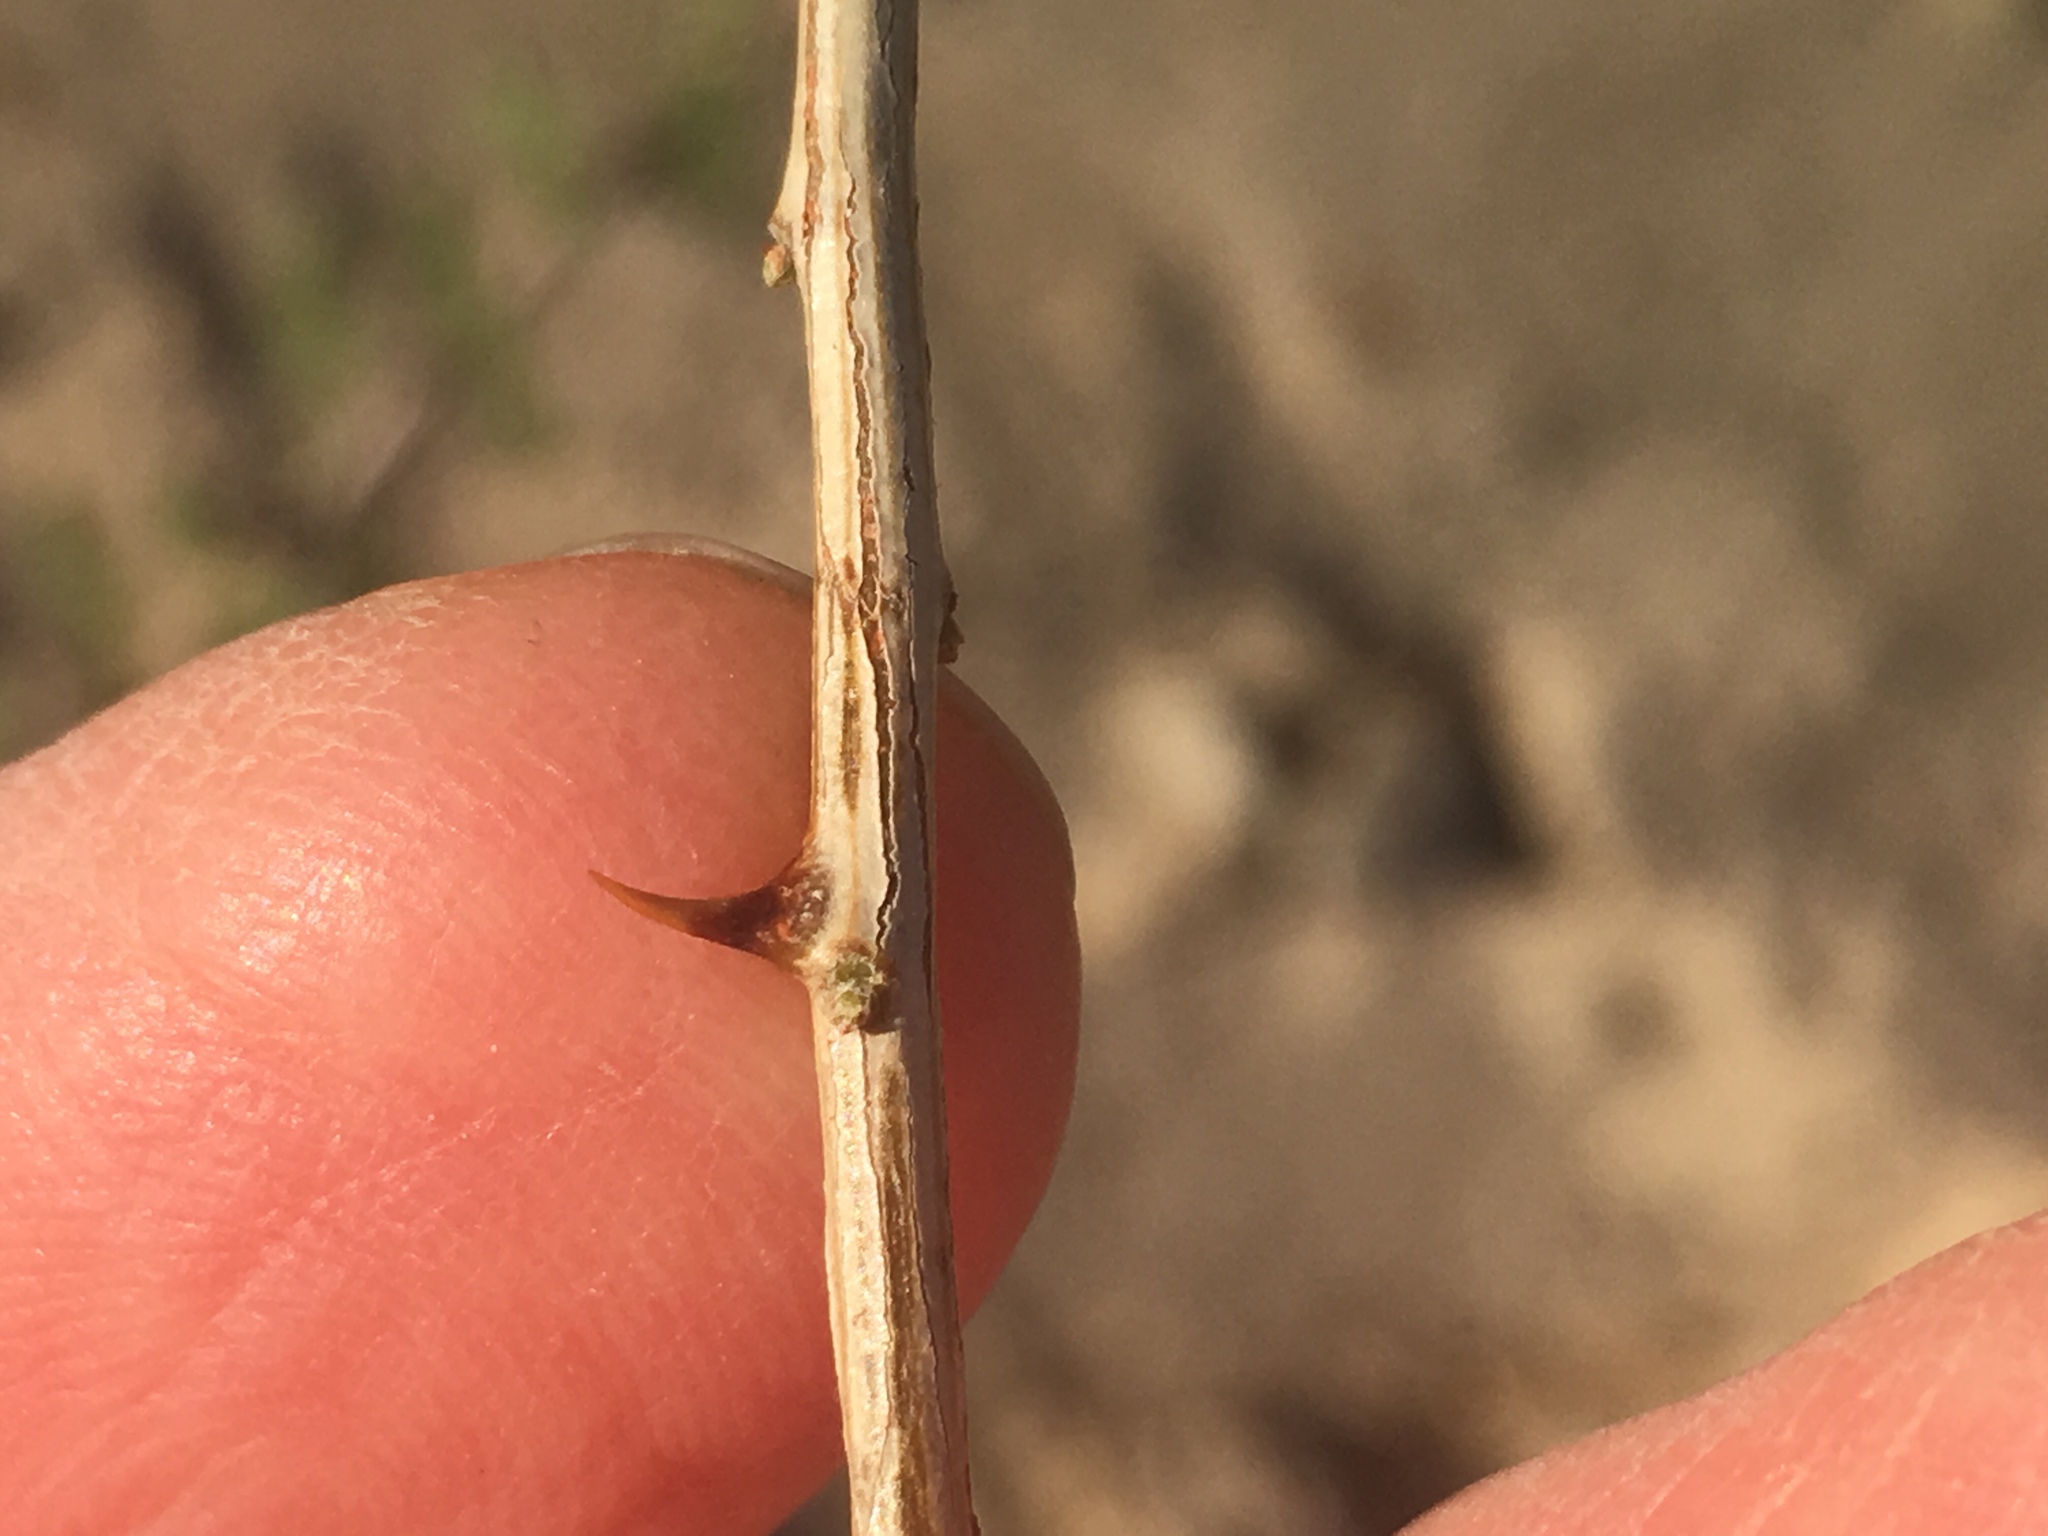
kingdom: Plantae
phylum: Tracheophyta
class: Magnoliopsida
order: Fabales
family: Fabaceae
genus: Senegalia
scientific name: Senegalia greggii
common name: Texas-mimosa
